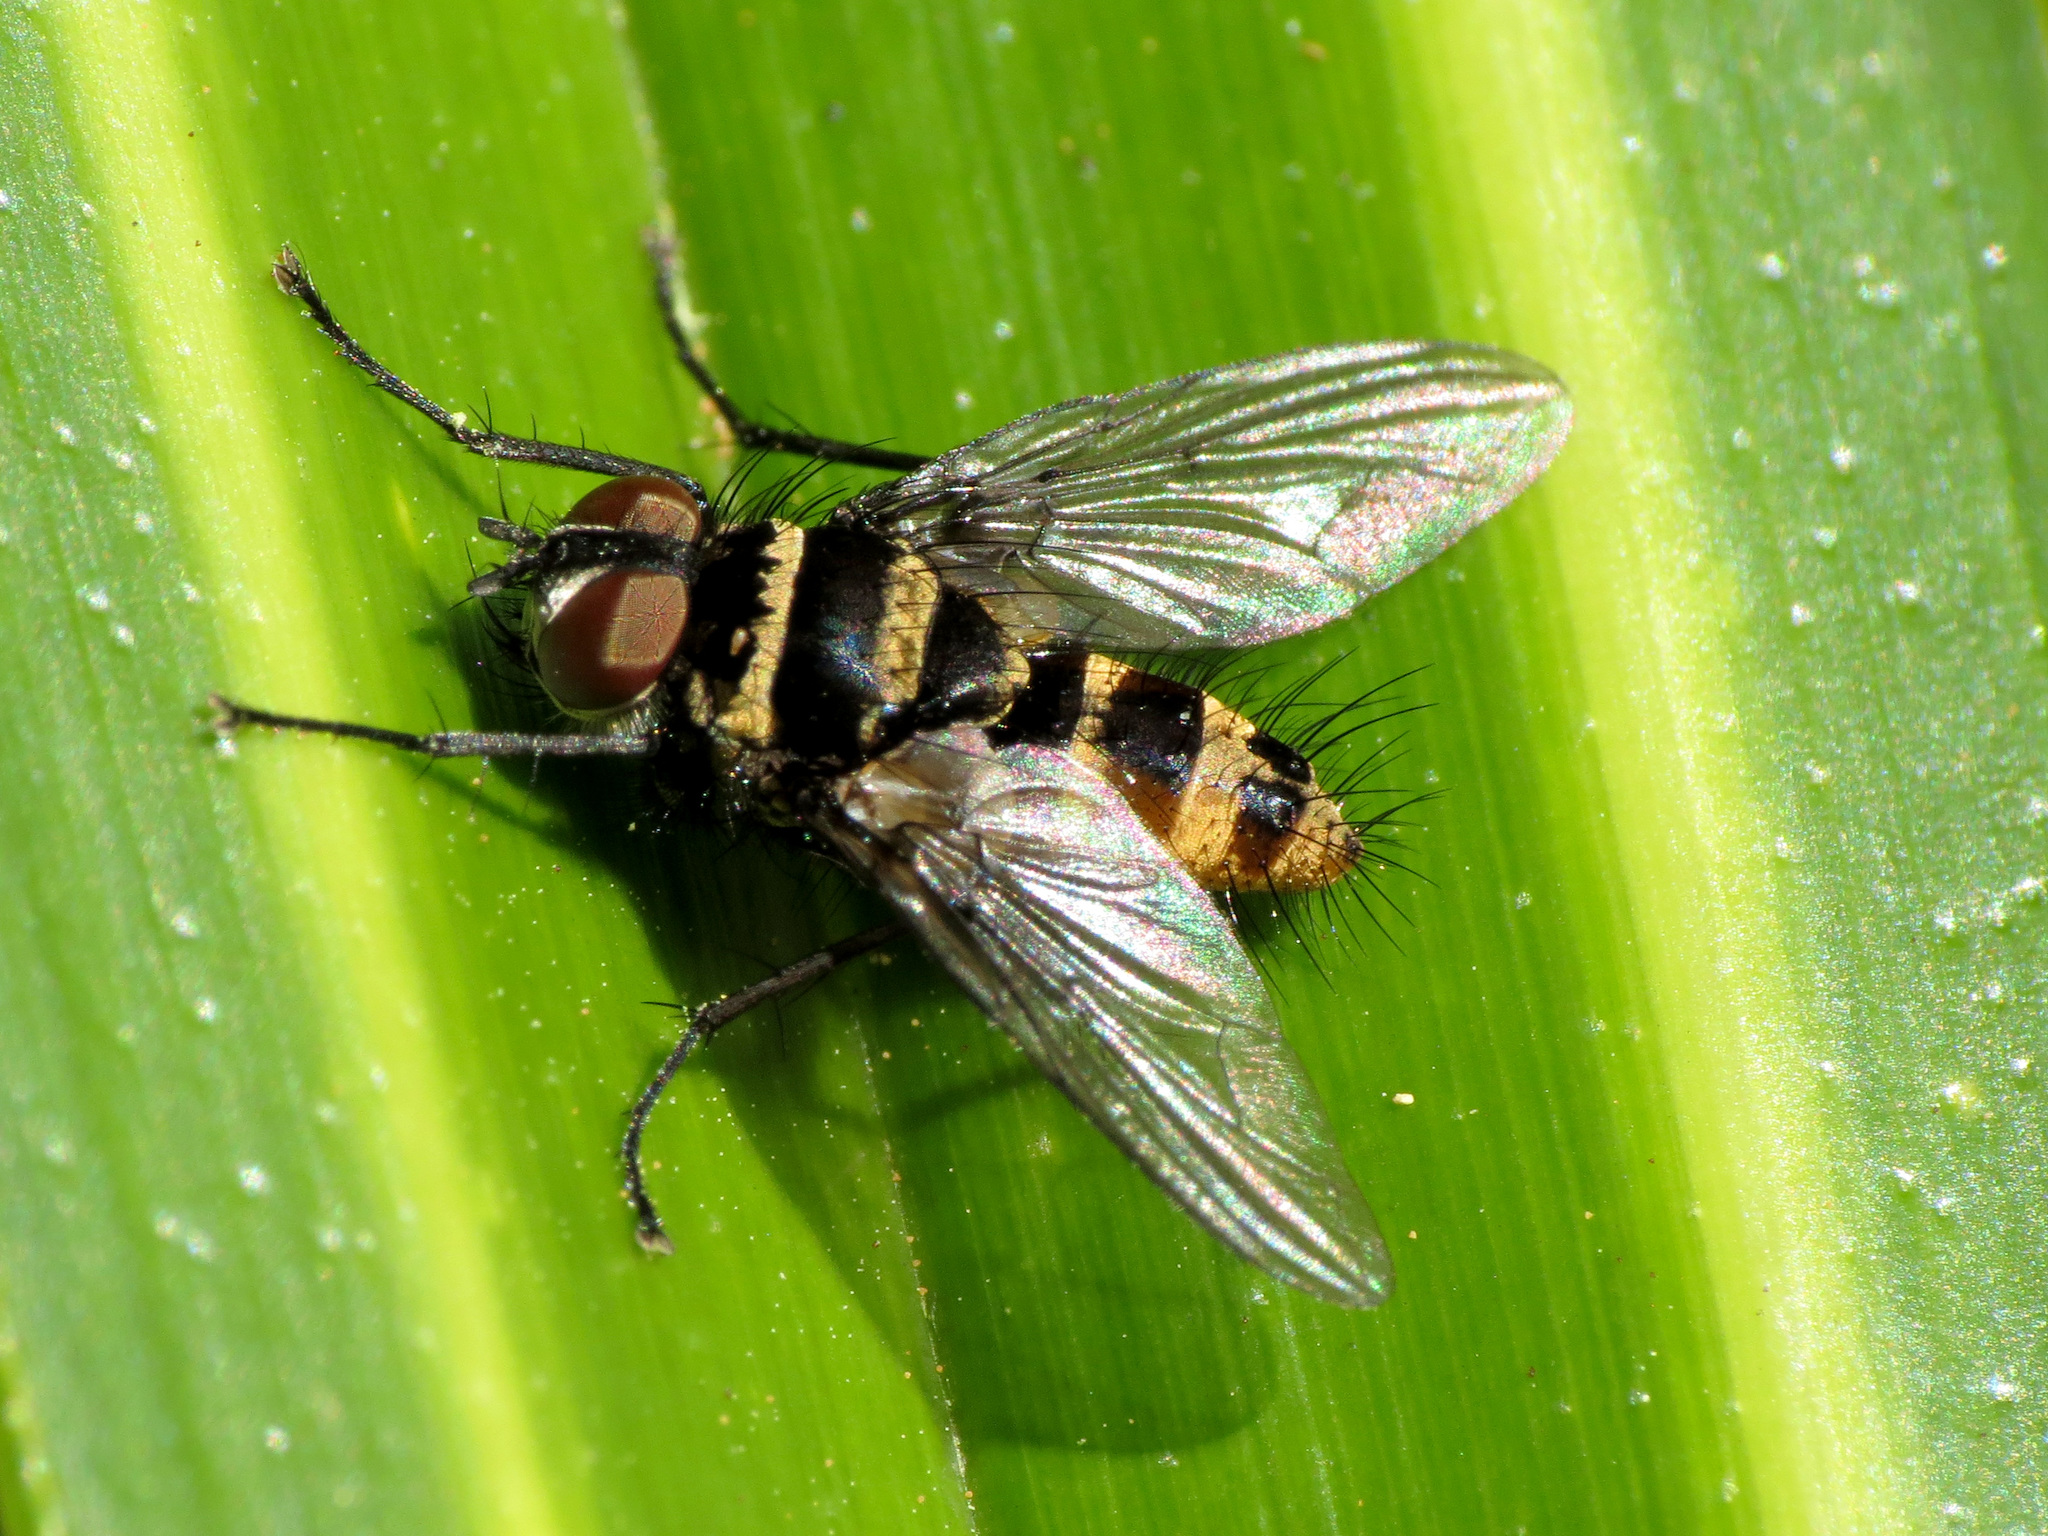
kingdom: Animalia
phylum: Arthropoda
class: Insecta
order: Diptera
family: Tachinidae
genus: Trigonospila
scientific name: Trigonospila brevifacies
